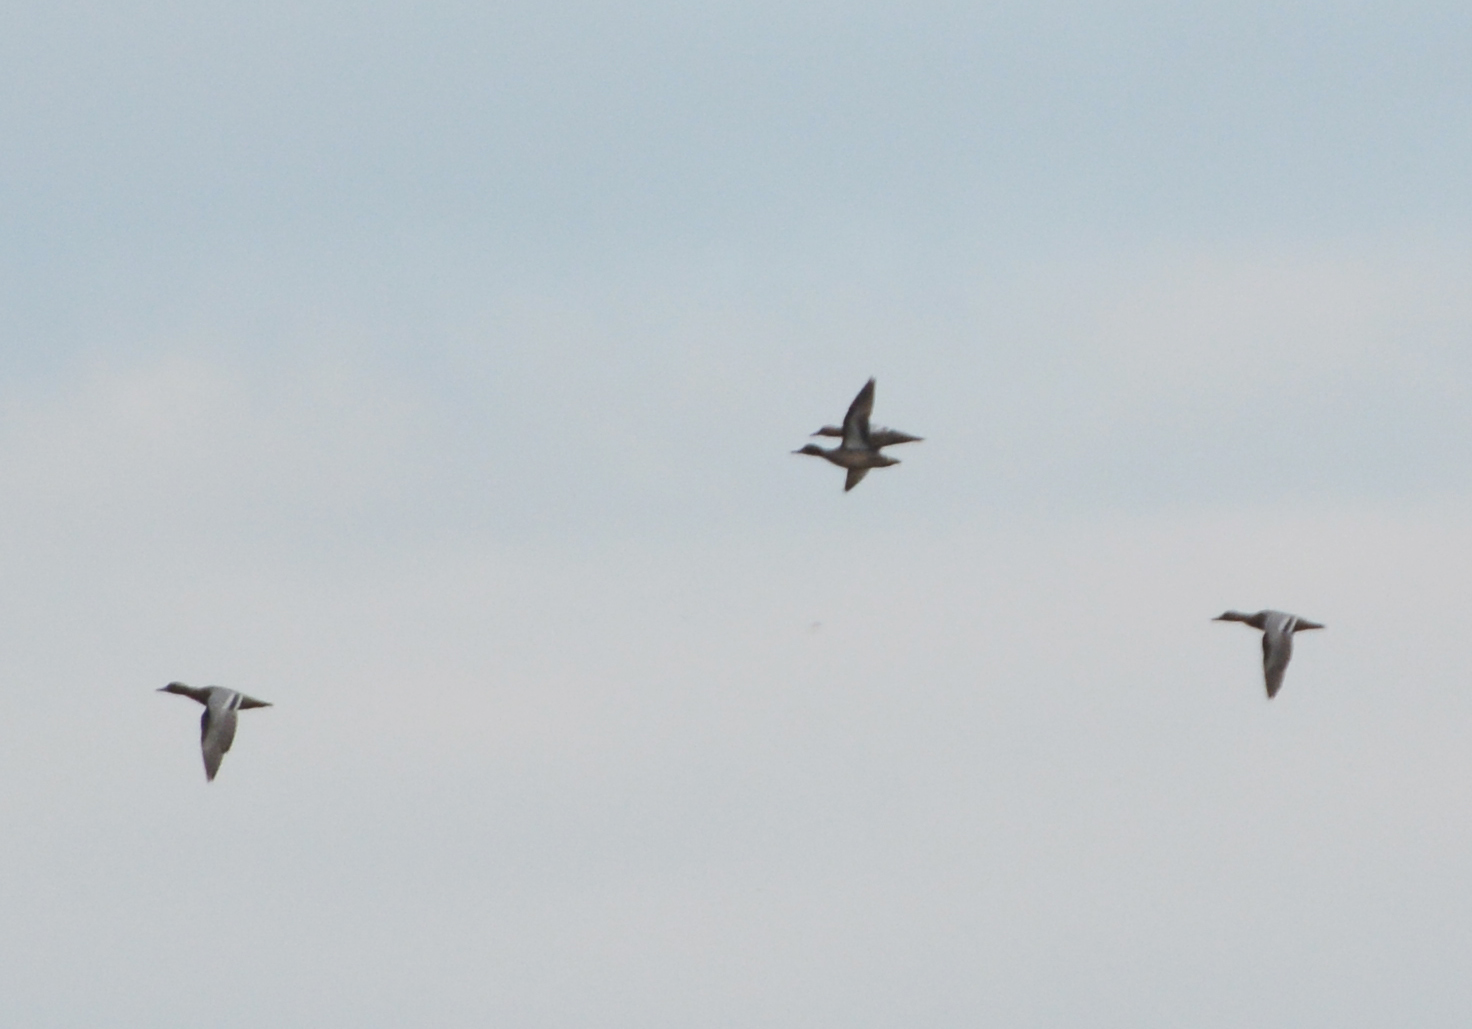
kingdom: Animalia
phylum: Chordata
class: Aves
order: Anseriformes
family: Anatidae
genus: Spatula
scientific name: Spatula querquedula
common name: Garganey
